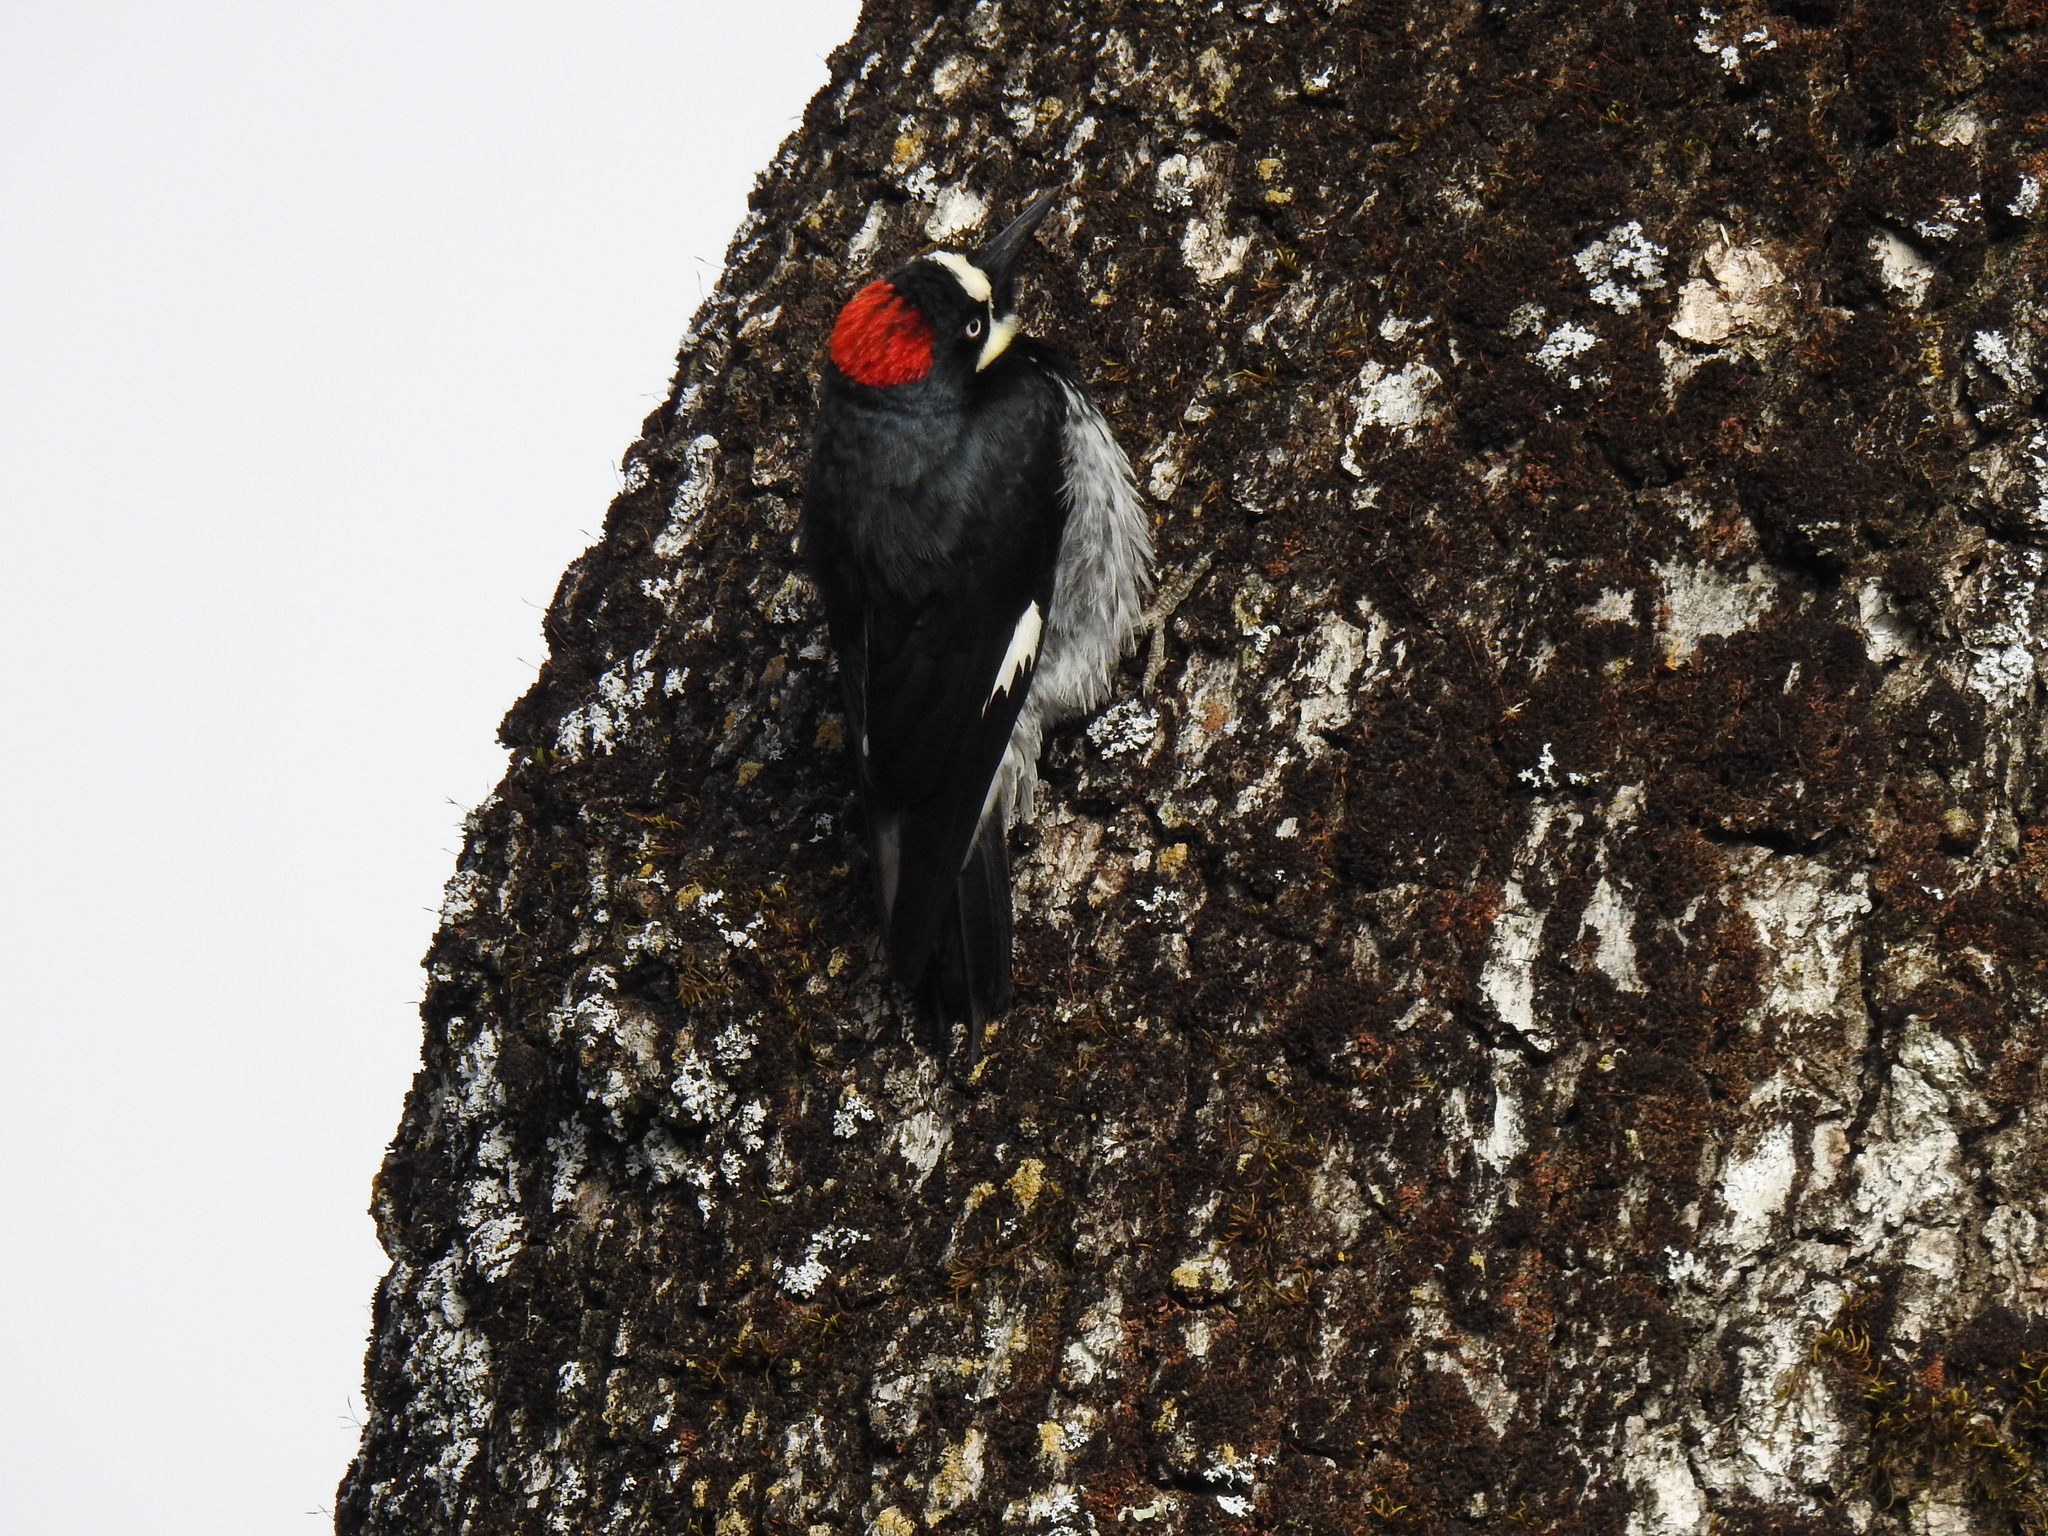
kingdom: Animalia
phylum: Chordata
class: Aves
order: Piciformes
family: Picidae
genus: Melanerpes
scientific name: Melanerpes formicivorus
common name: Acorn woodpecker
